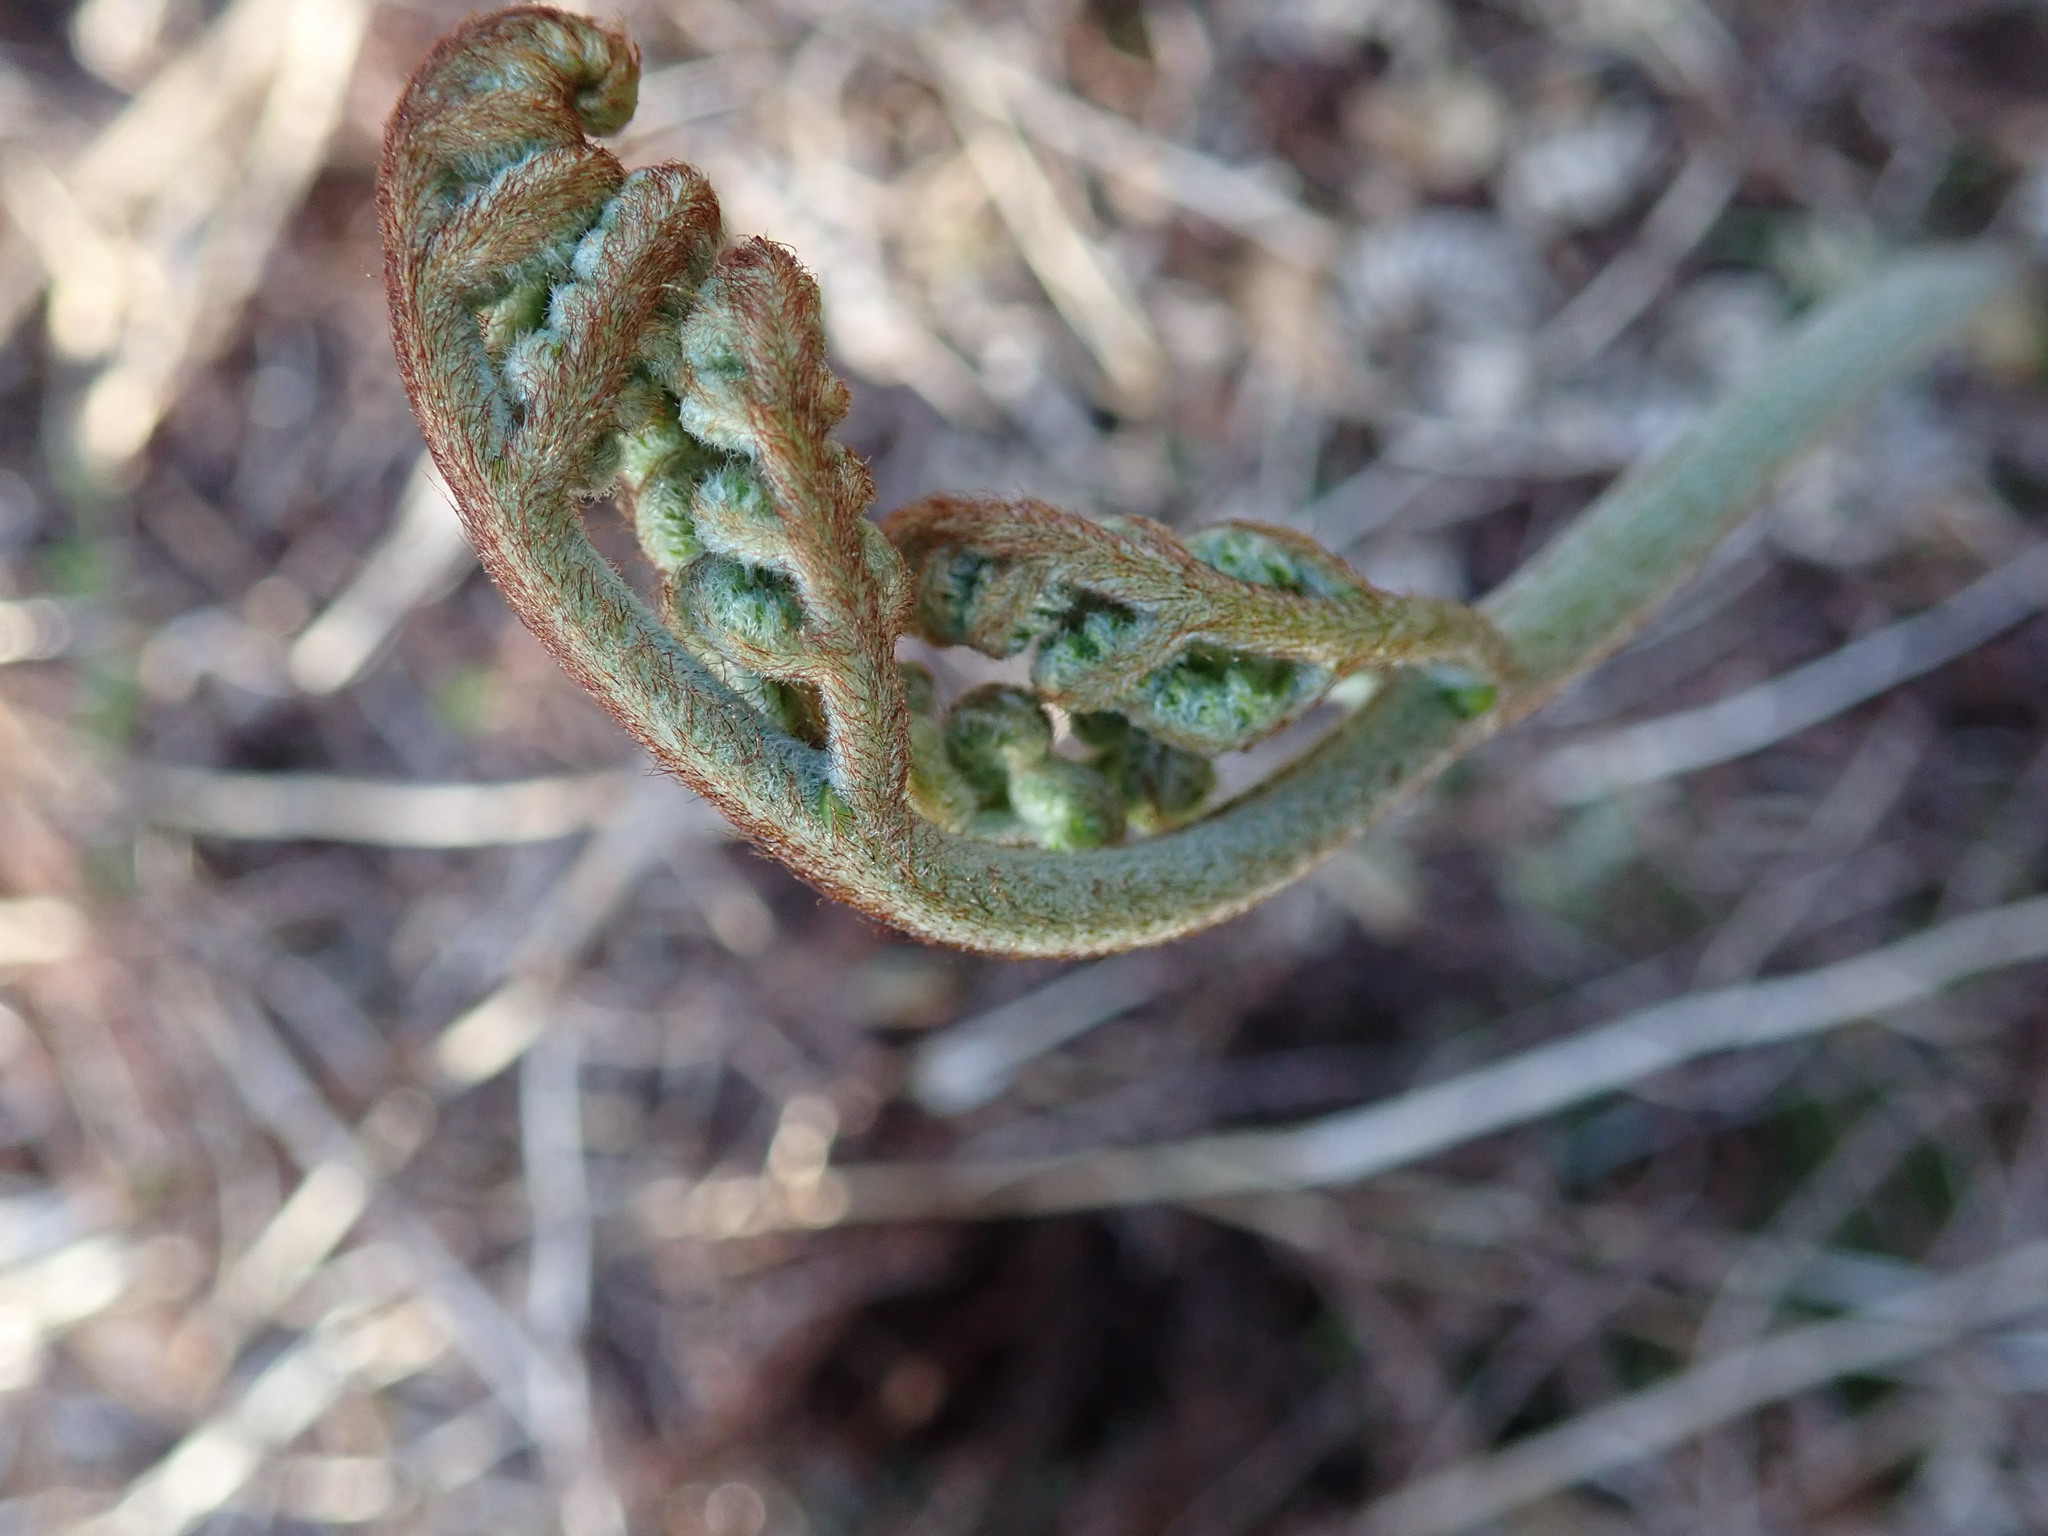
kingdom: Plantae
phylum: Tracheophyta
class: Polypodiopsida
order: Polypodiales
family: Dennstaedtiaceae
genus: Pteridium
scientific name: Pteridium aquilinum
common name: Bracken
